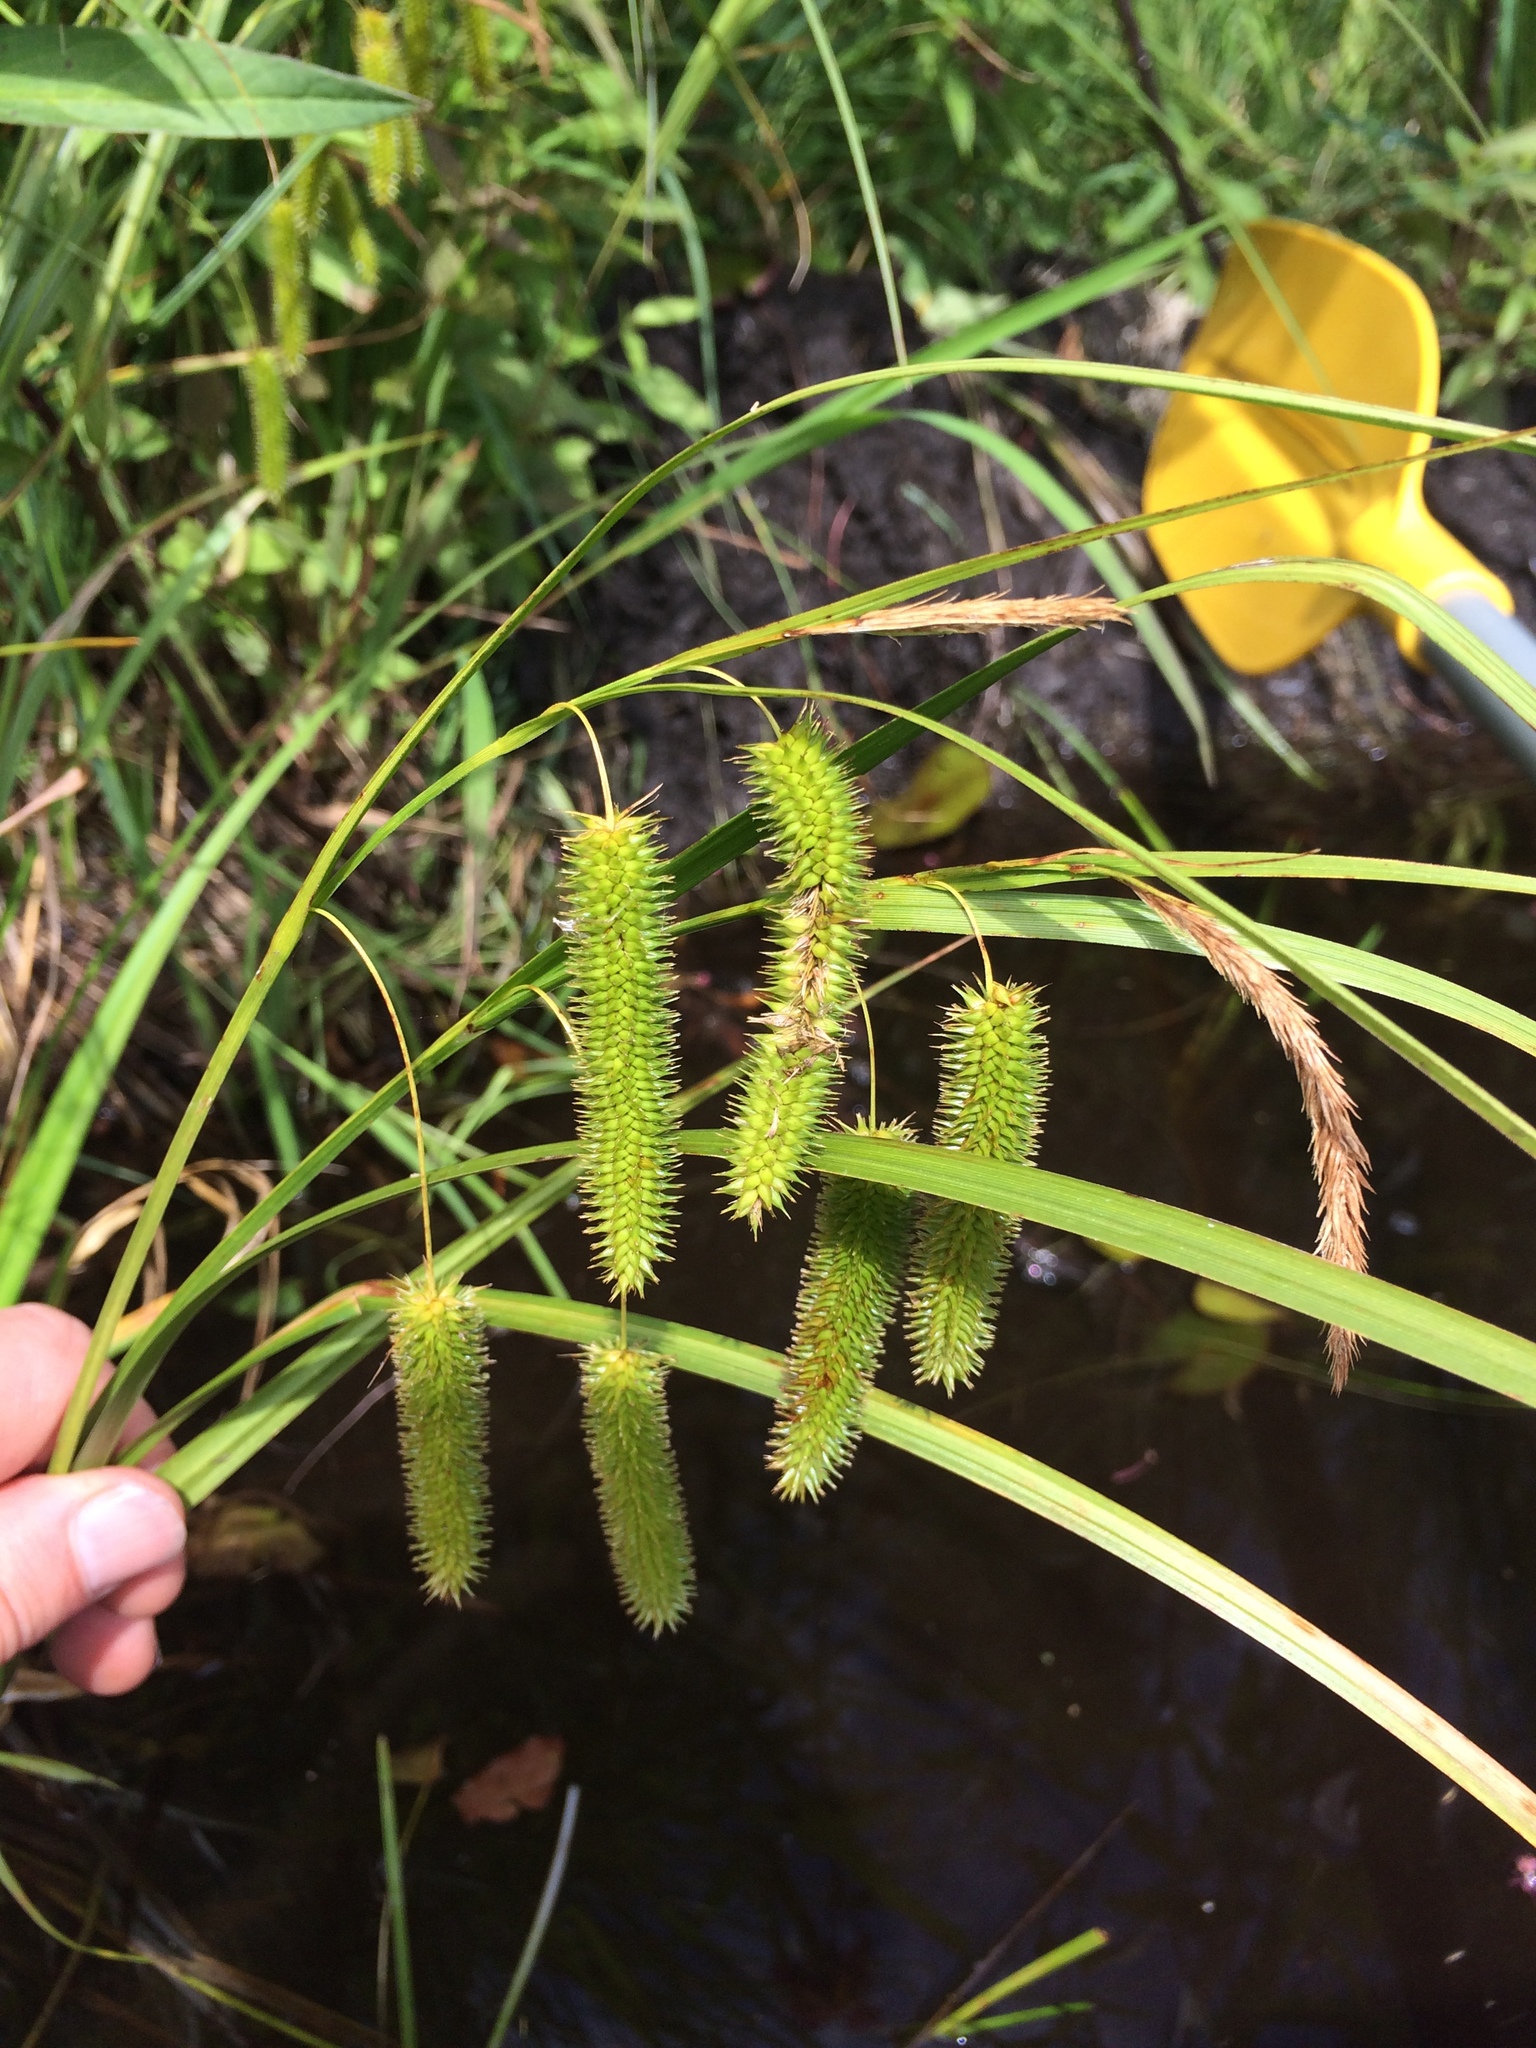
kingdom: Plantae
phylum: Tracheophyta
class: Liliopsida
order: Poales
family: Cyperaceae
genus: Carex
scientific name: Carex pseudocyperus
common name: Cyperus sedge
